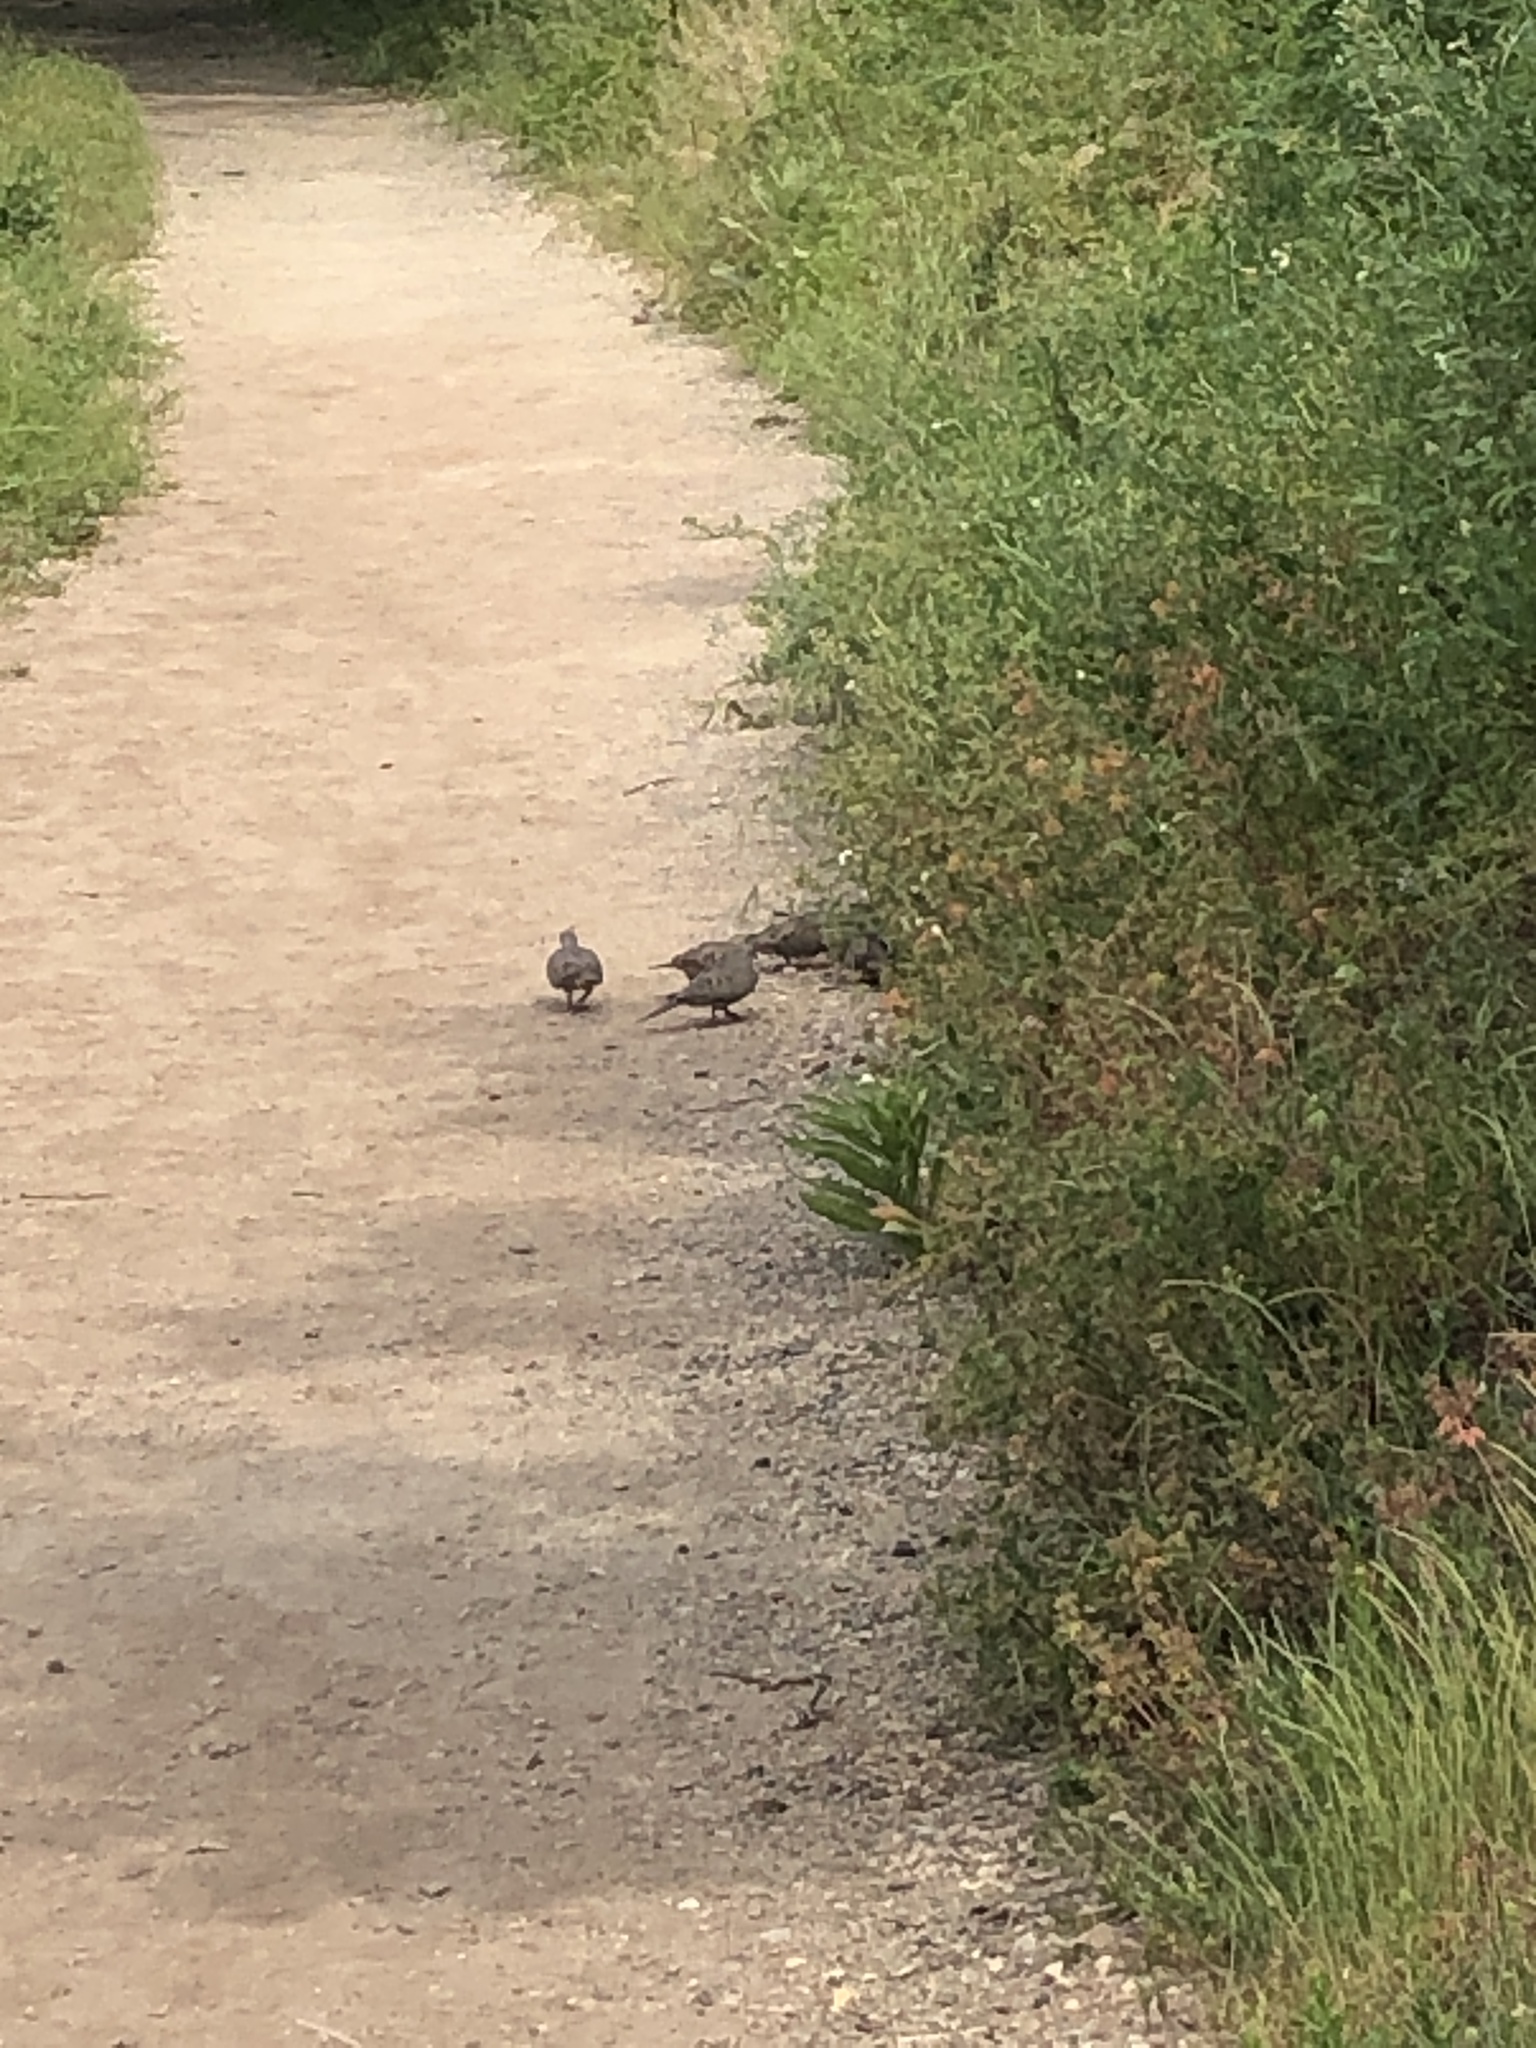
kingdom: Animalia
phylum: Chordata
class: Aves
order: Columbiformes
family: Columbidae
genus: Zenaida
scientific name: Zenaida macroura
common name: Mourning dove
